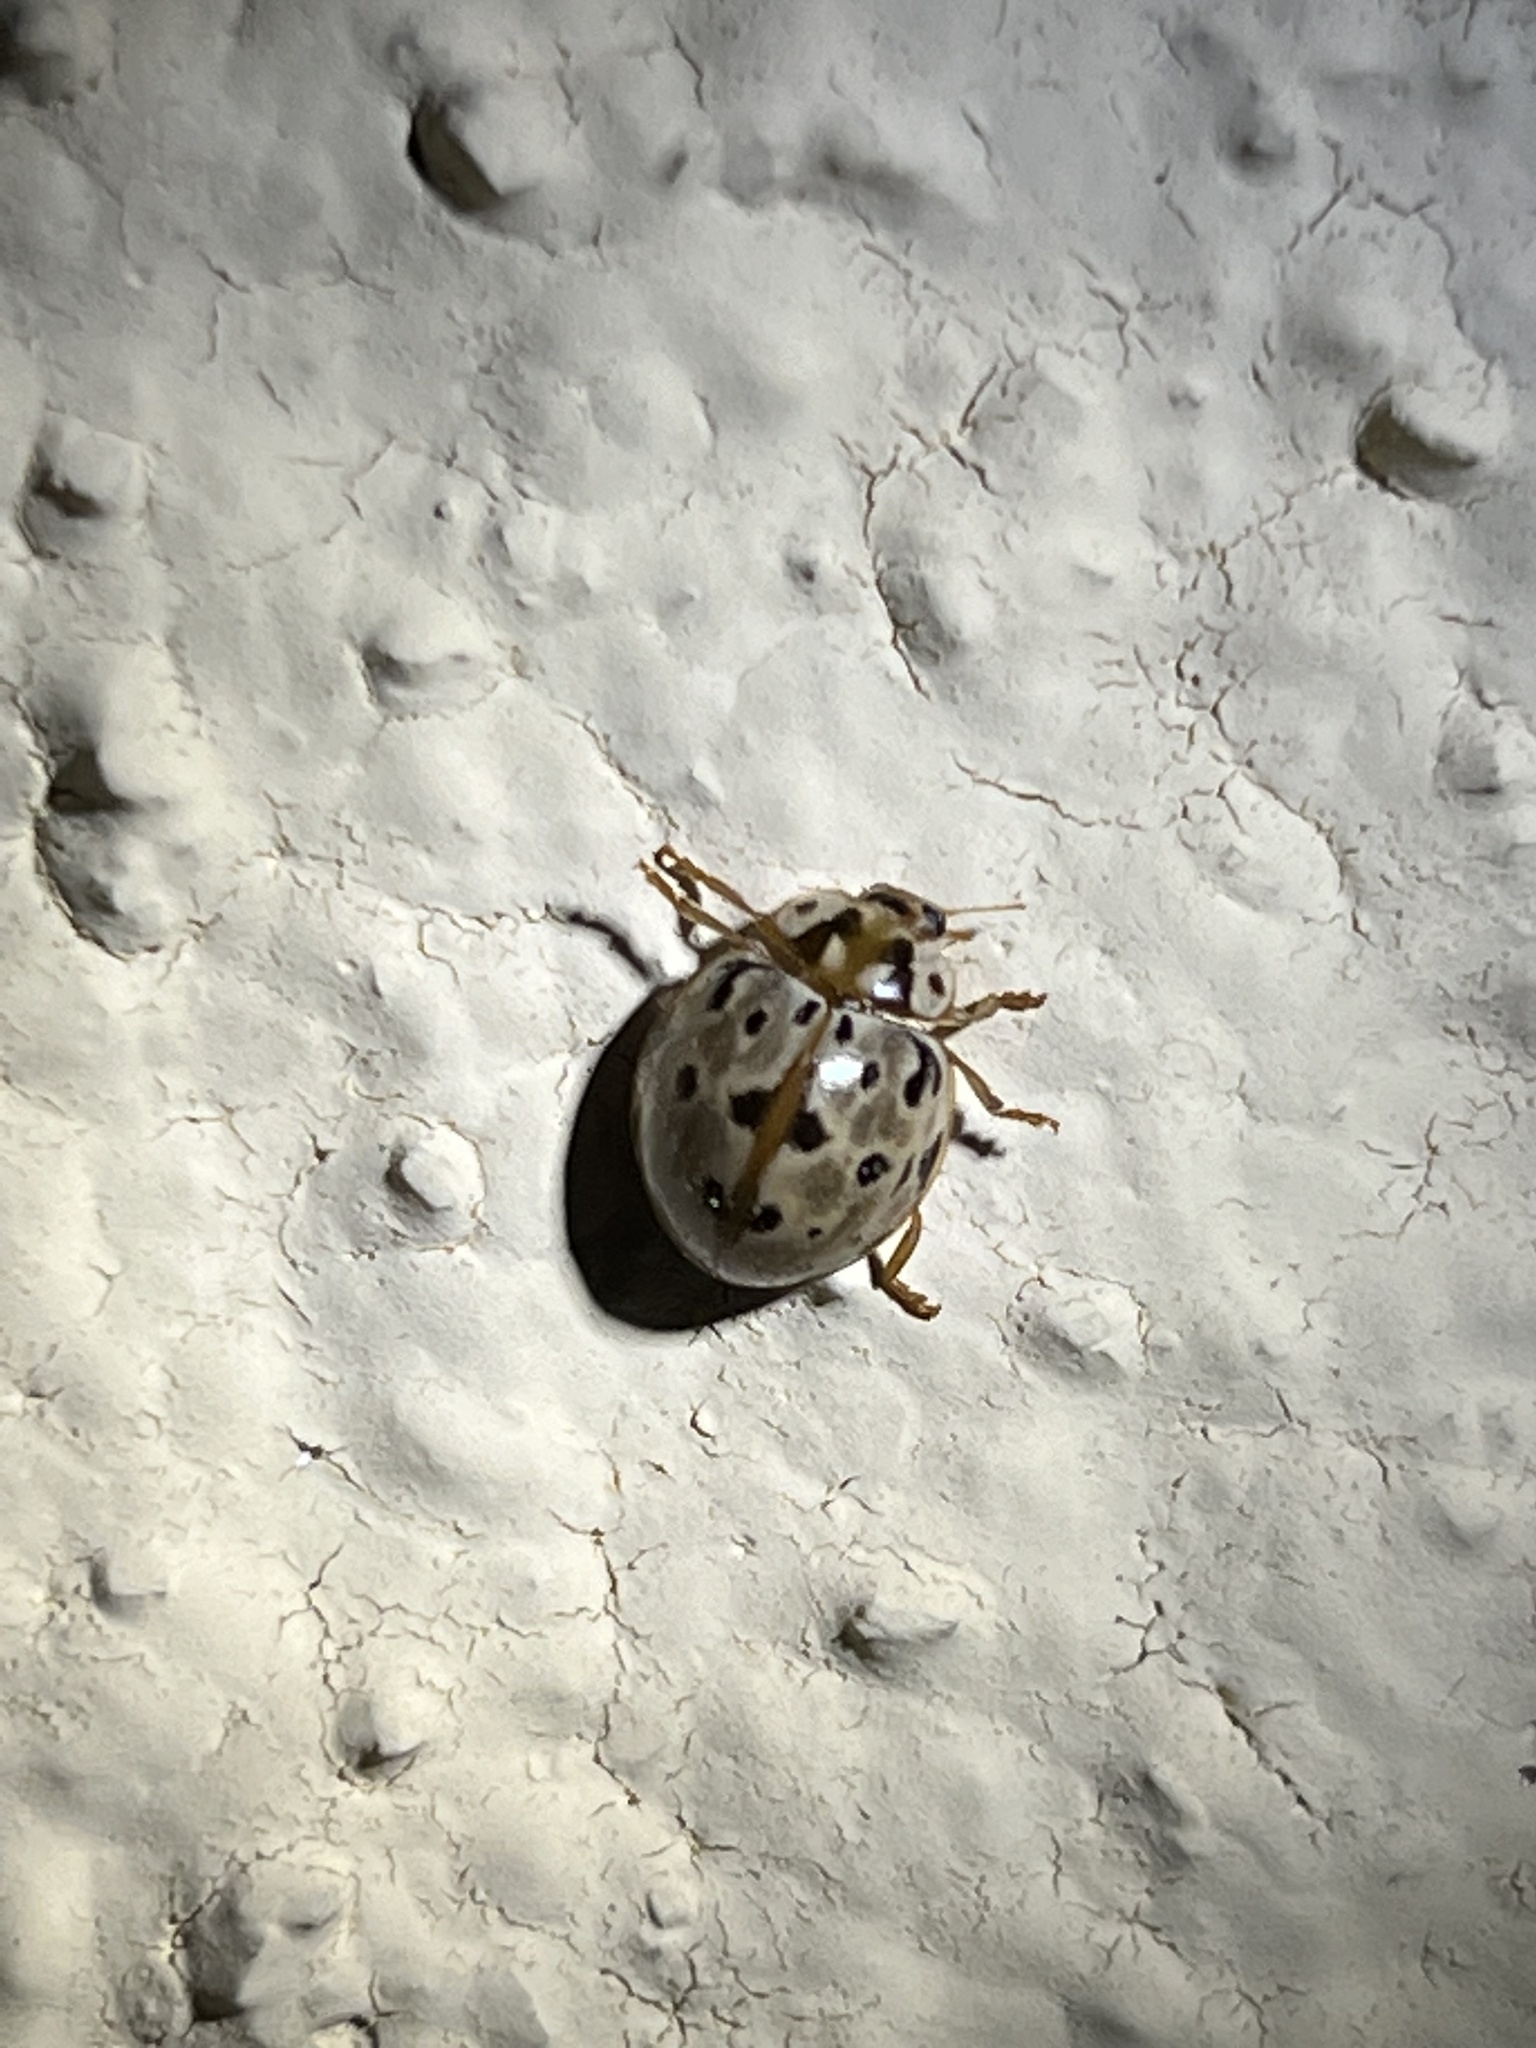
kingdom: Animalia
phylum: Arthropoda
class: Insecta
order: Coleoptera
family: Coccinellidae
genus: Harmonia
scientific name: Harmonia
